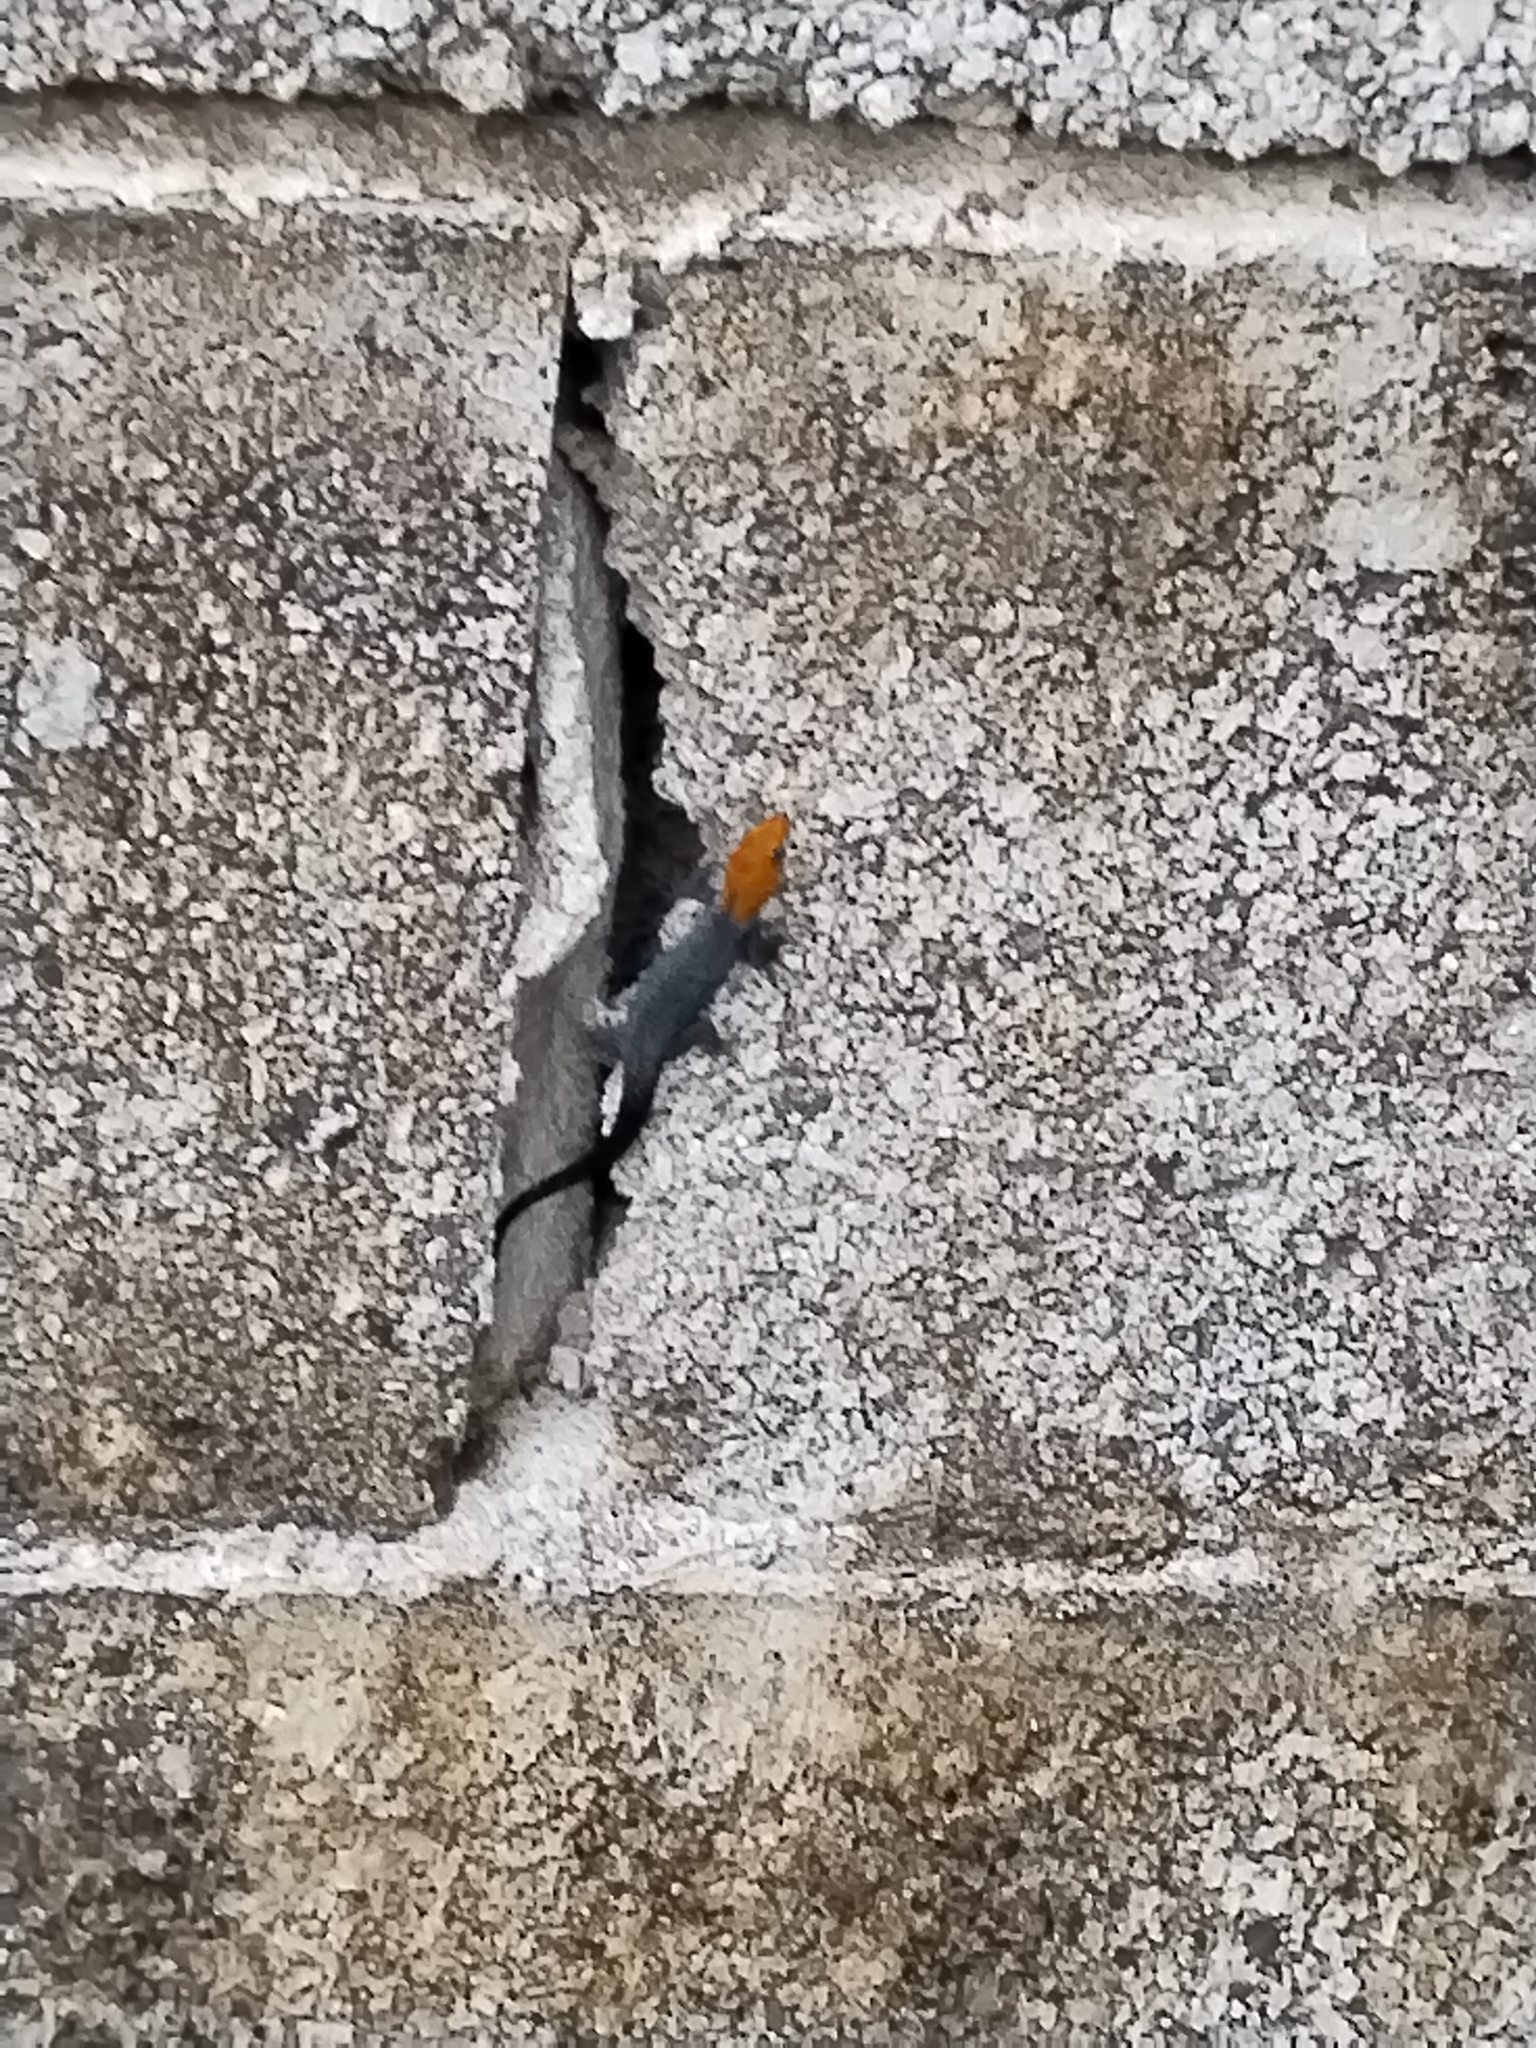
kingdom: Animalia
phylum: Chordata
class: Squamata
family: Sphaerodactylidae
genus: Gonatodes
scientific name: Gonatodes albogularis
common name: Yellow-headed gecko
